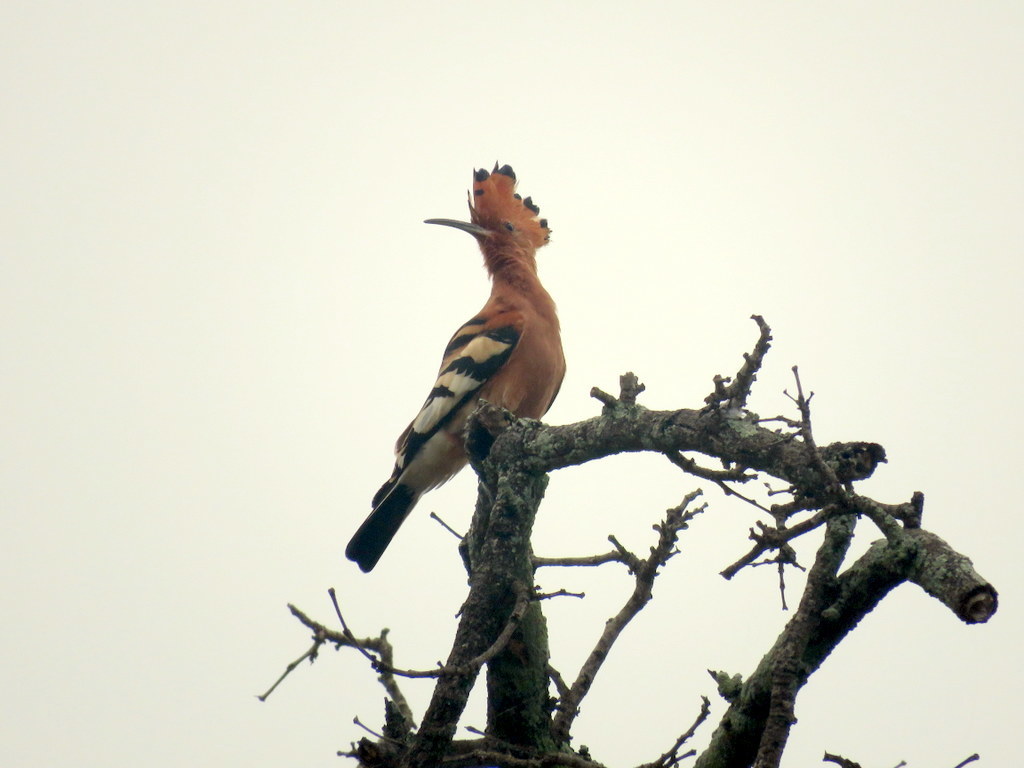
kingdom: Animalia
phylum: Chordata
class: Aves
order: Bucerotiformes
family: Upupidae
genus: Upupa
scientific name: Upupa epops
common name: Eurasian hoopoe
